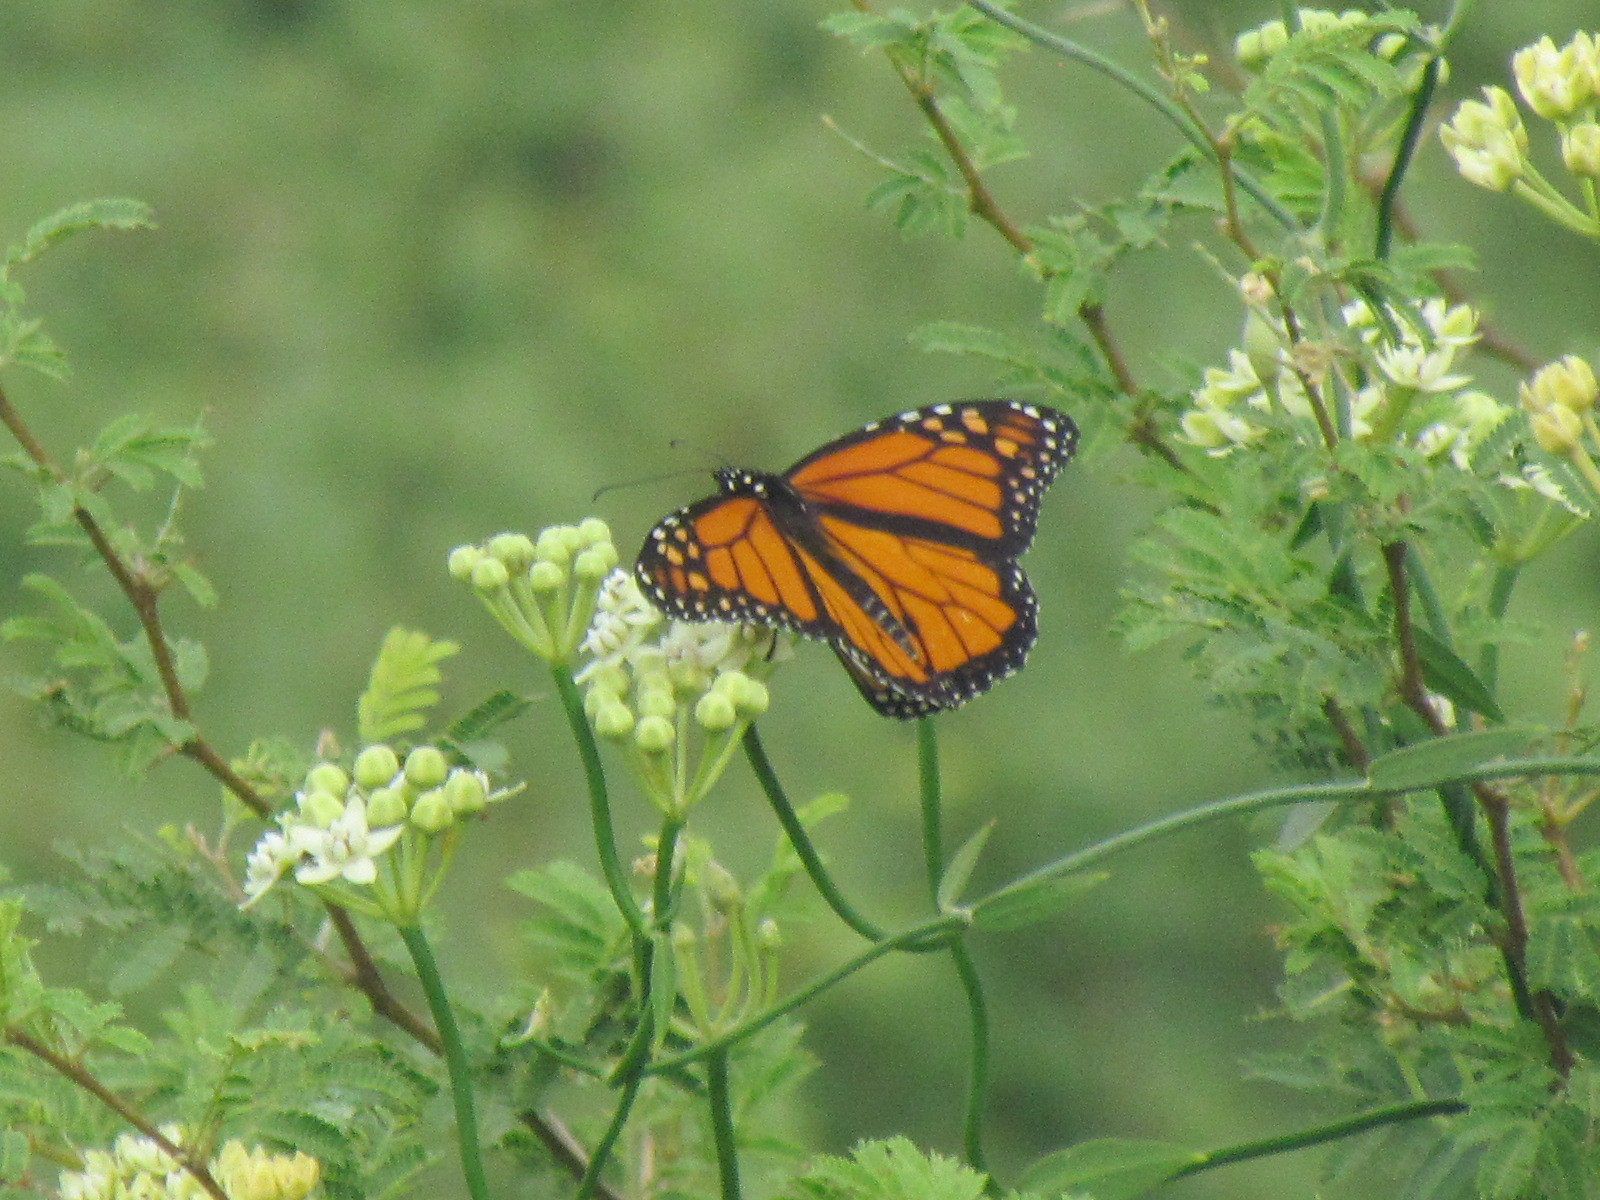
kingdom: Animalia
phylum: Arthropoda
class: Insecta
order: Lepidoptera
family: Nymphalidae
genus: Danaus
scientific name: Danaus plexippus
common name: Monarch
